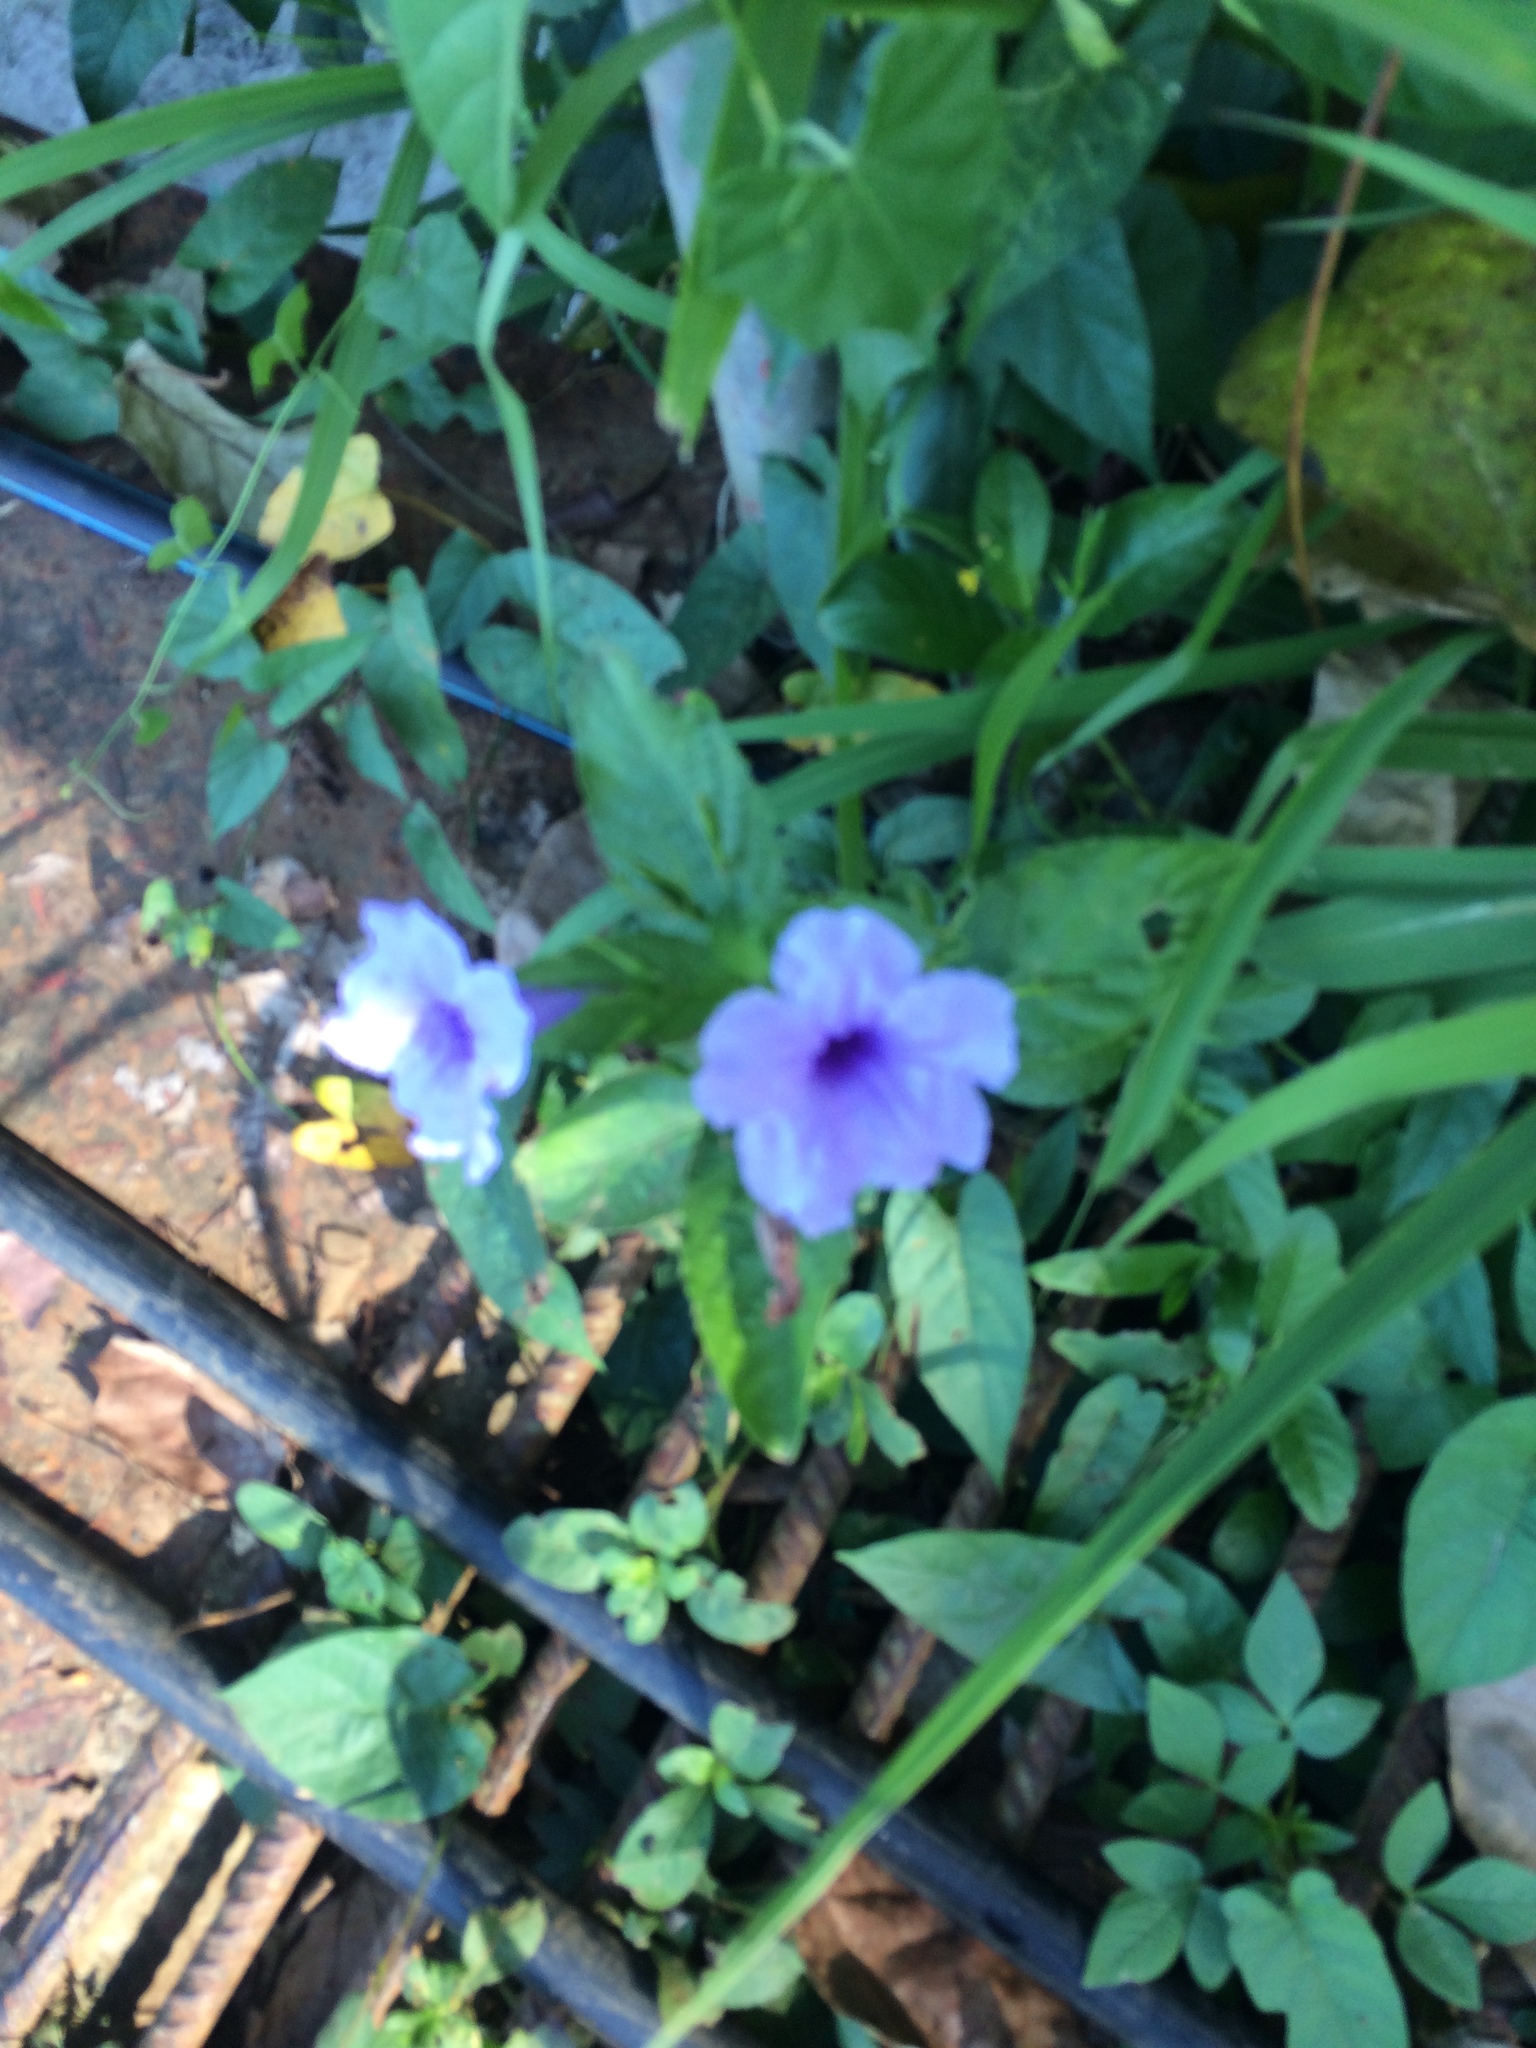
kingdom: Plantae
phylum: Tracheophyta
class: Magnoliopsida
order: Lamiales
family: Acanthaceae
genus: Ruellia
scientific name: Ruellia tuberosa
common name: Devil's bit
